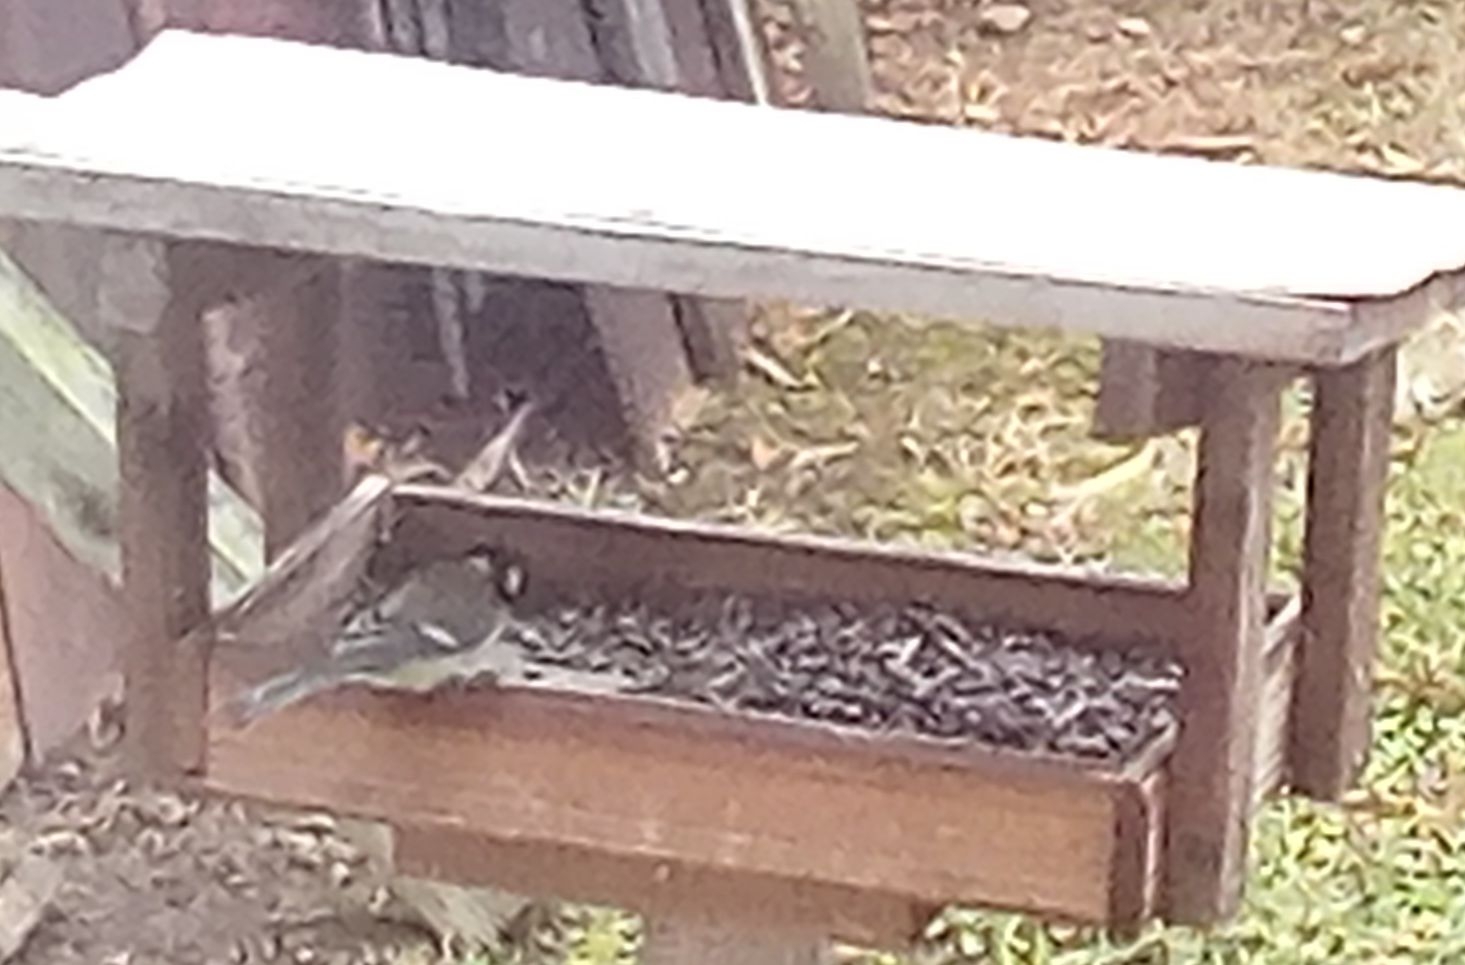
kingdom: Animalia
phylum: Chordata
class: Aves
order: Passeriformes
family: Paridae
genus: Parus
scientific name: Parus major
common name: Great tit
